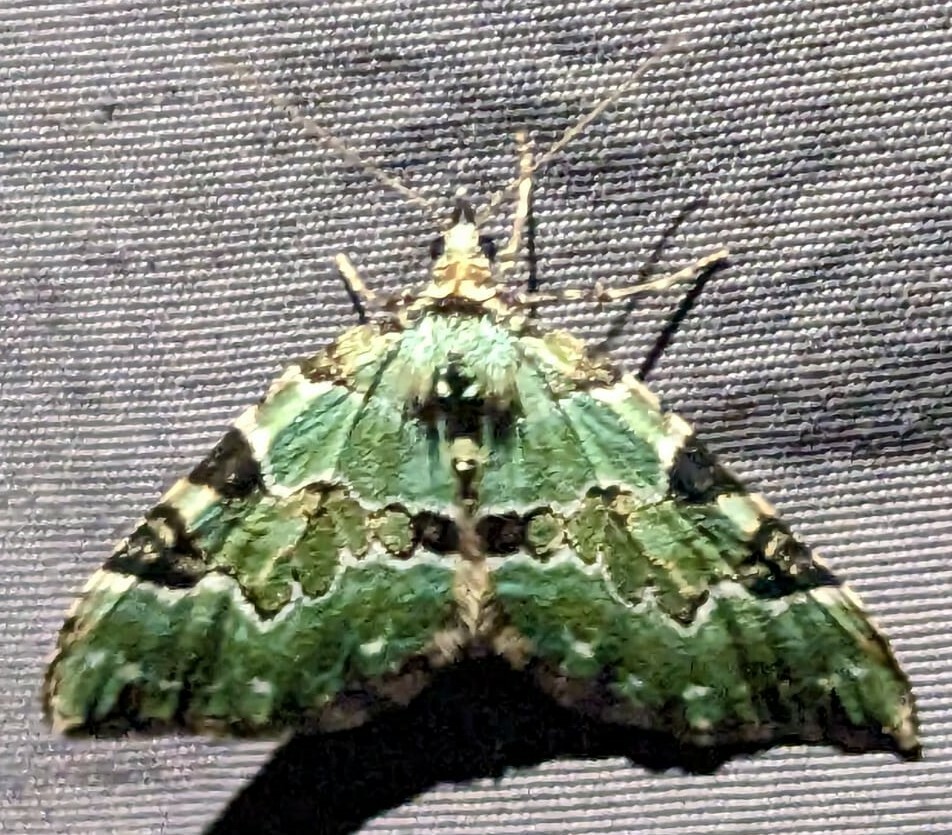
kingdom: Animalia
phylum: Arthropoda
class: Insecta
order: Lepidoptera
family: Geometridae
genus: Colostygia
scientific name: Colostygia pectinataria
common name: Green carpet
